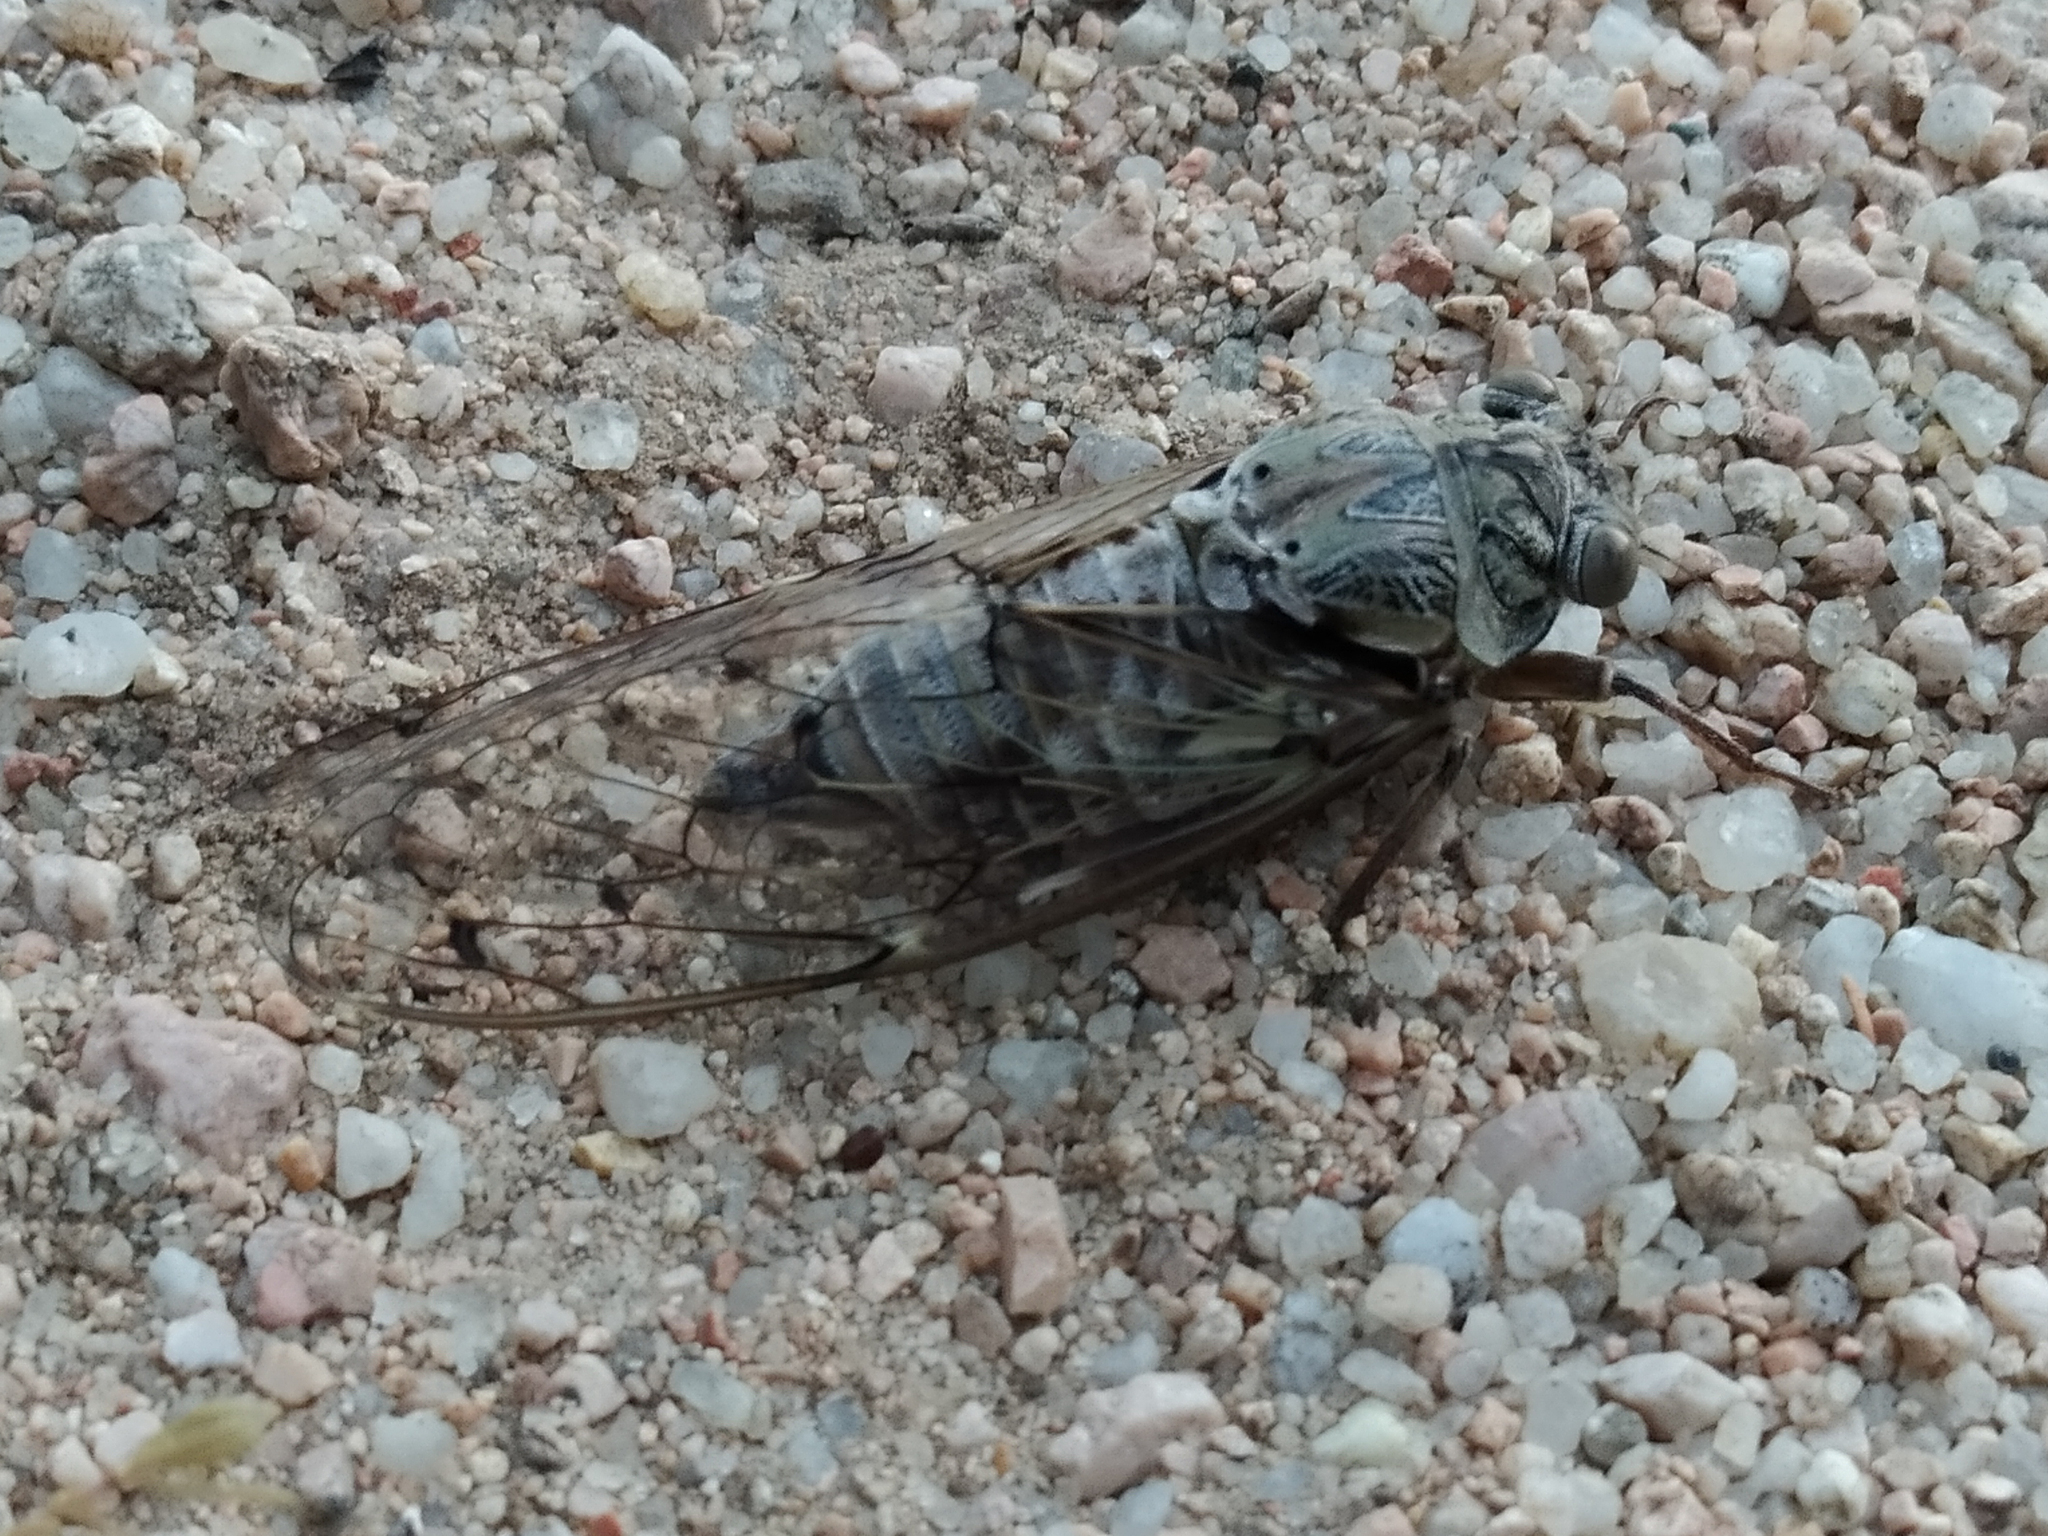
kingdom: Animalia
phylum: Arthropoda
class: Insecta
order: Hemiptera
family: Cicadidae
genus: Cicada
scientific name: Cicada orni
